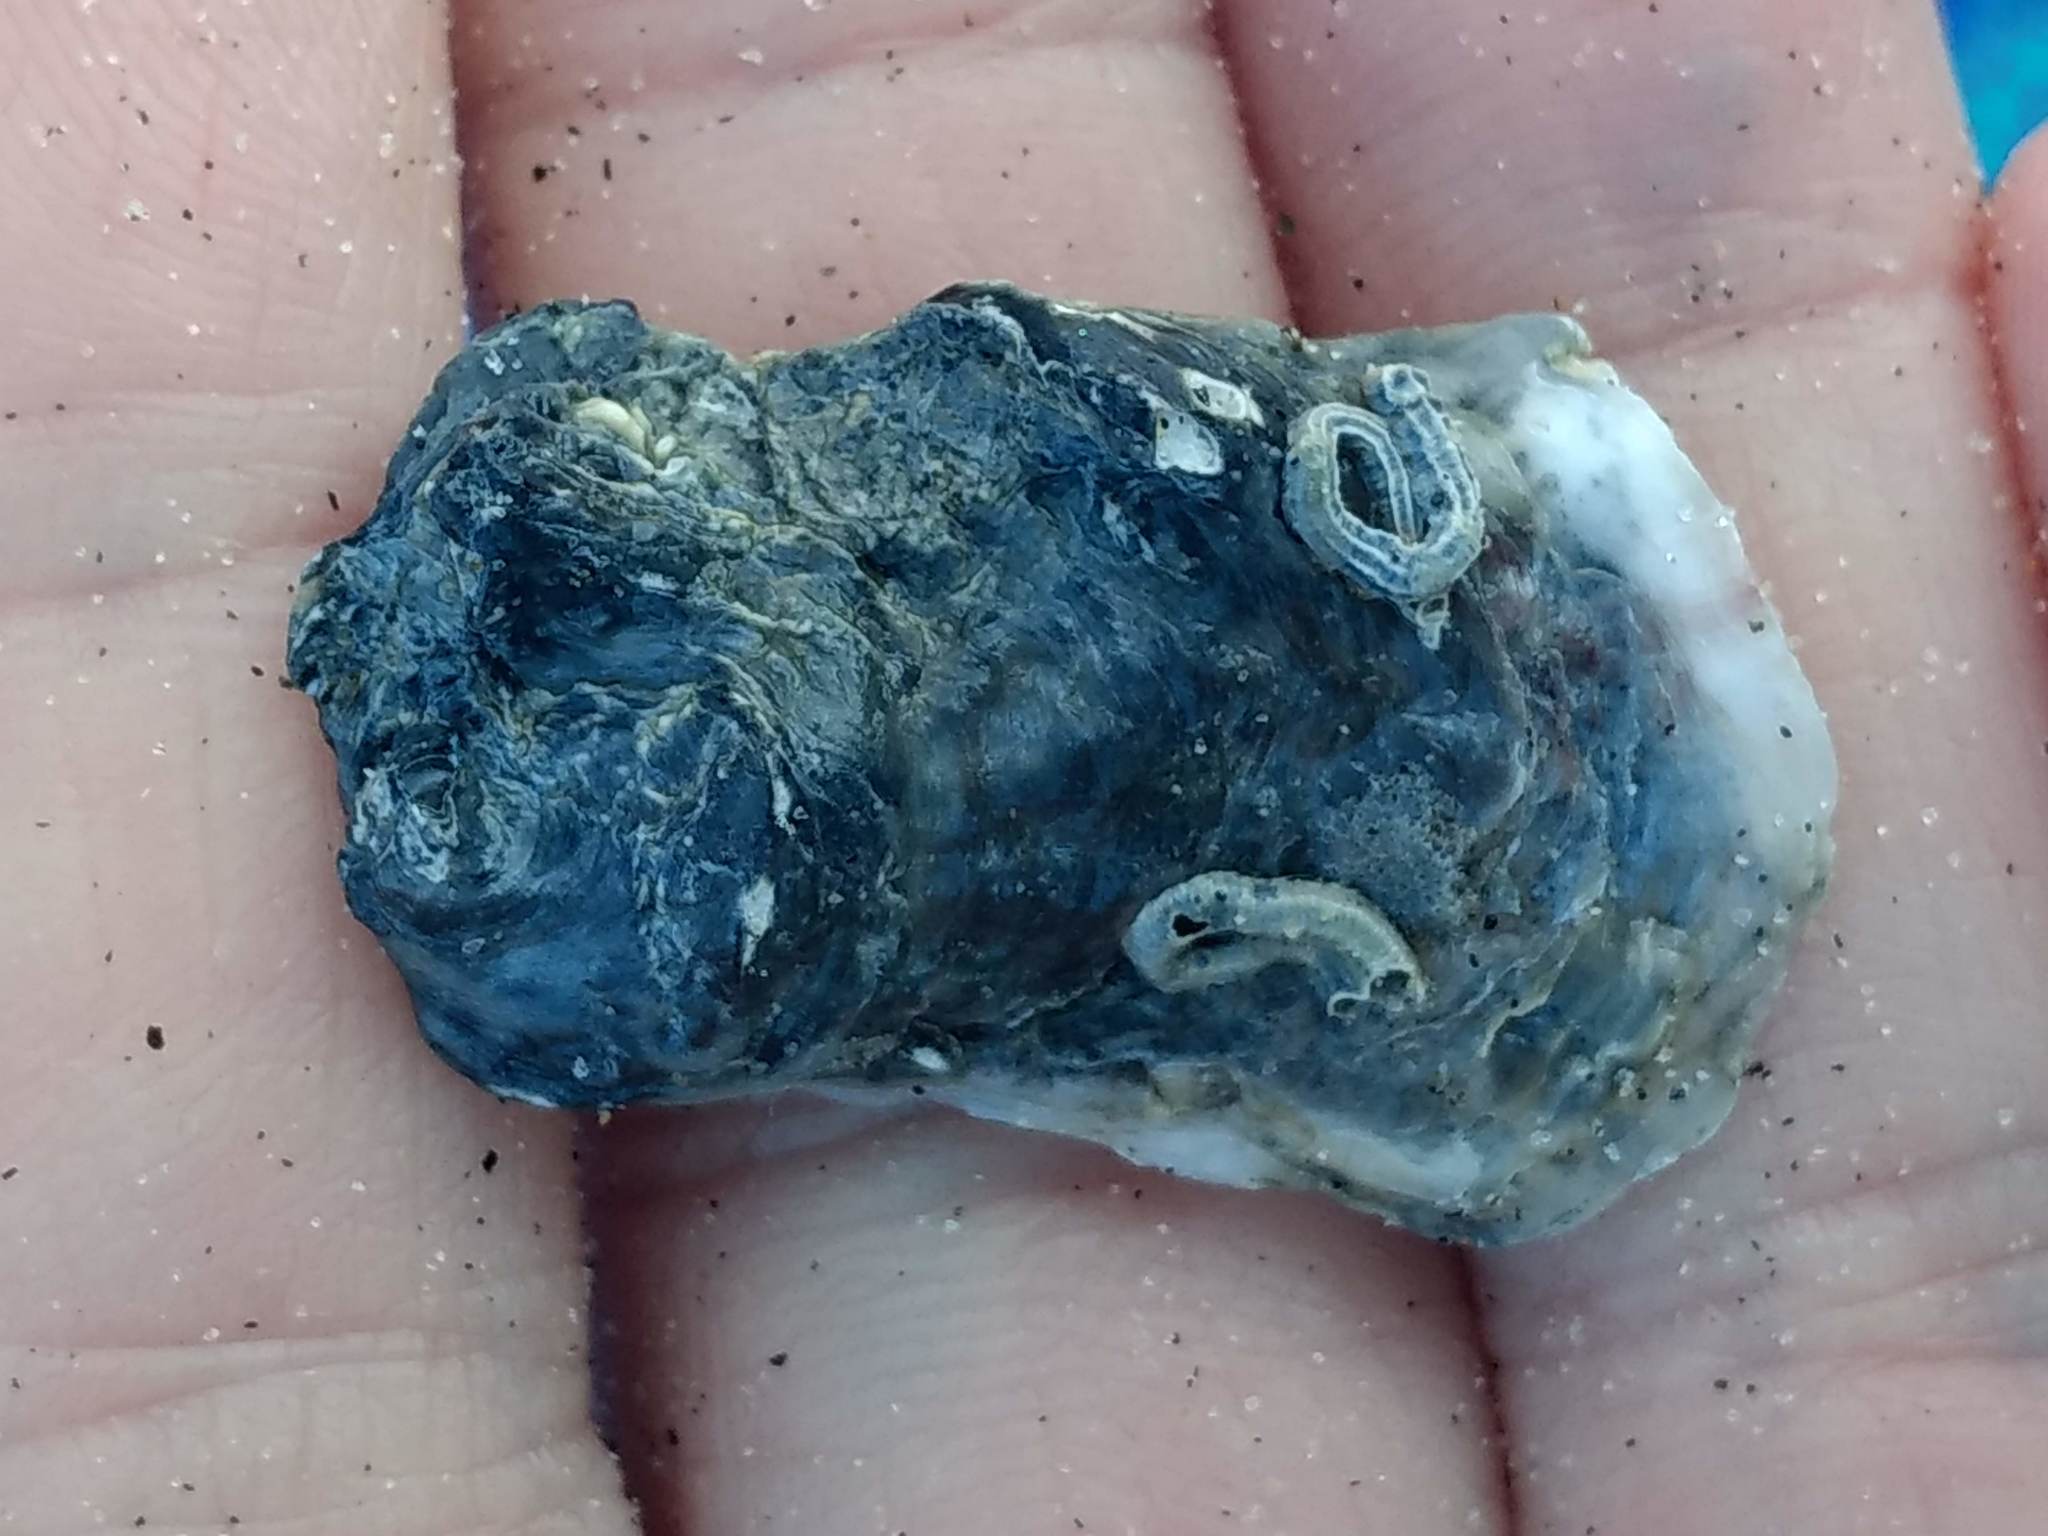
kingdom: Animalia
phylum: Mollusca
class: Bivalvia
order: Ostreida
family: Ostreidae
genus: Ostrea
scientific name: Ostrea lurida
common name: Olympia flat oyster
